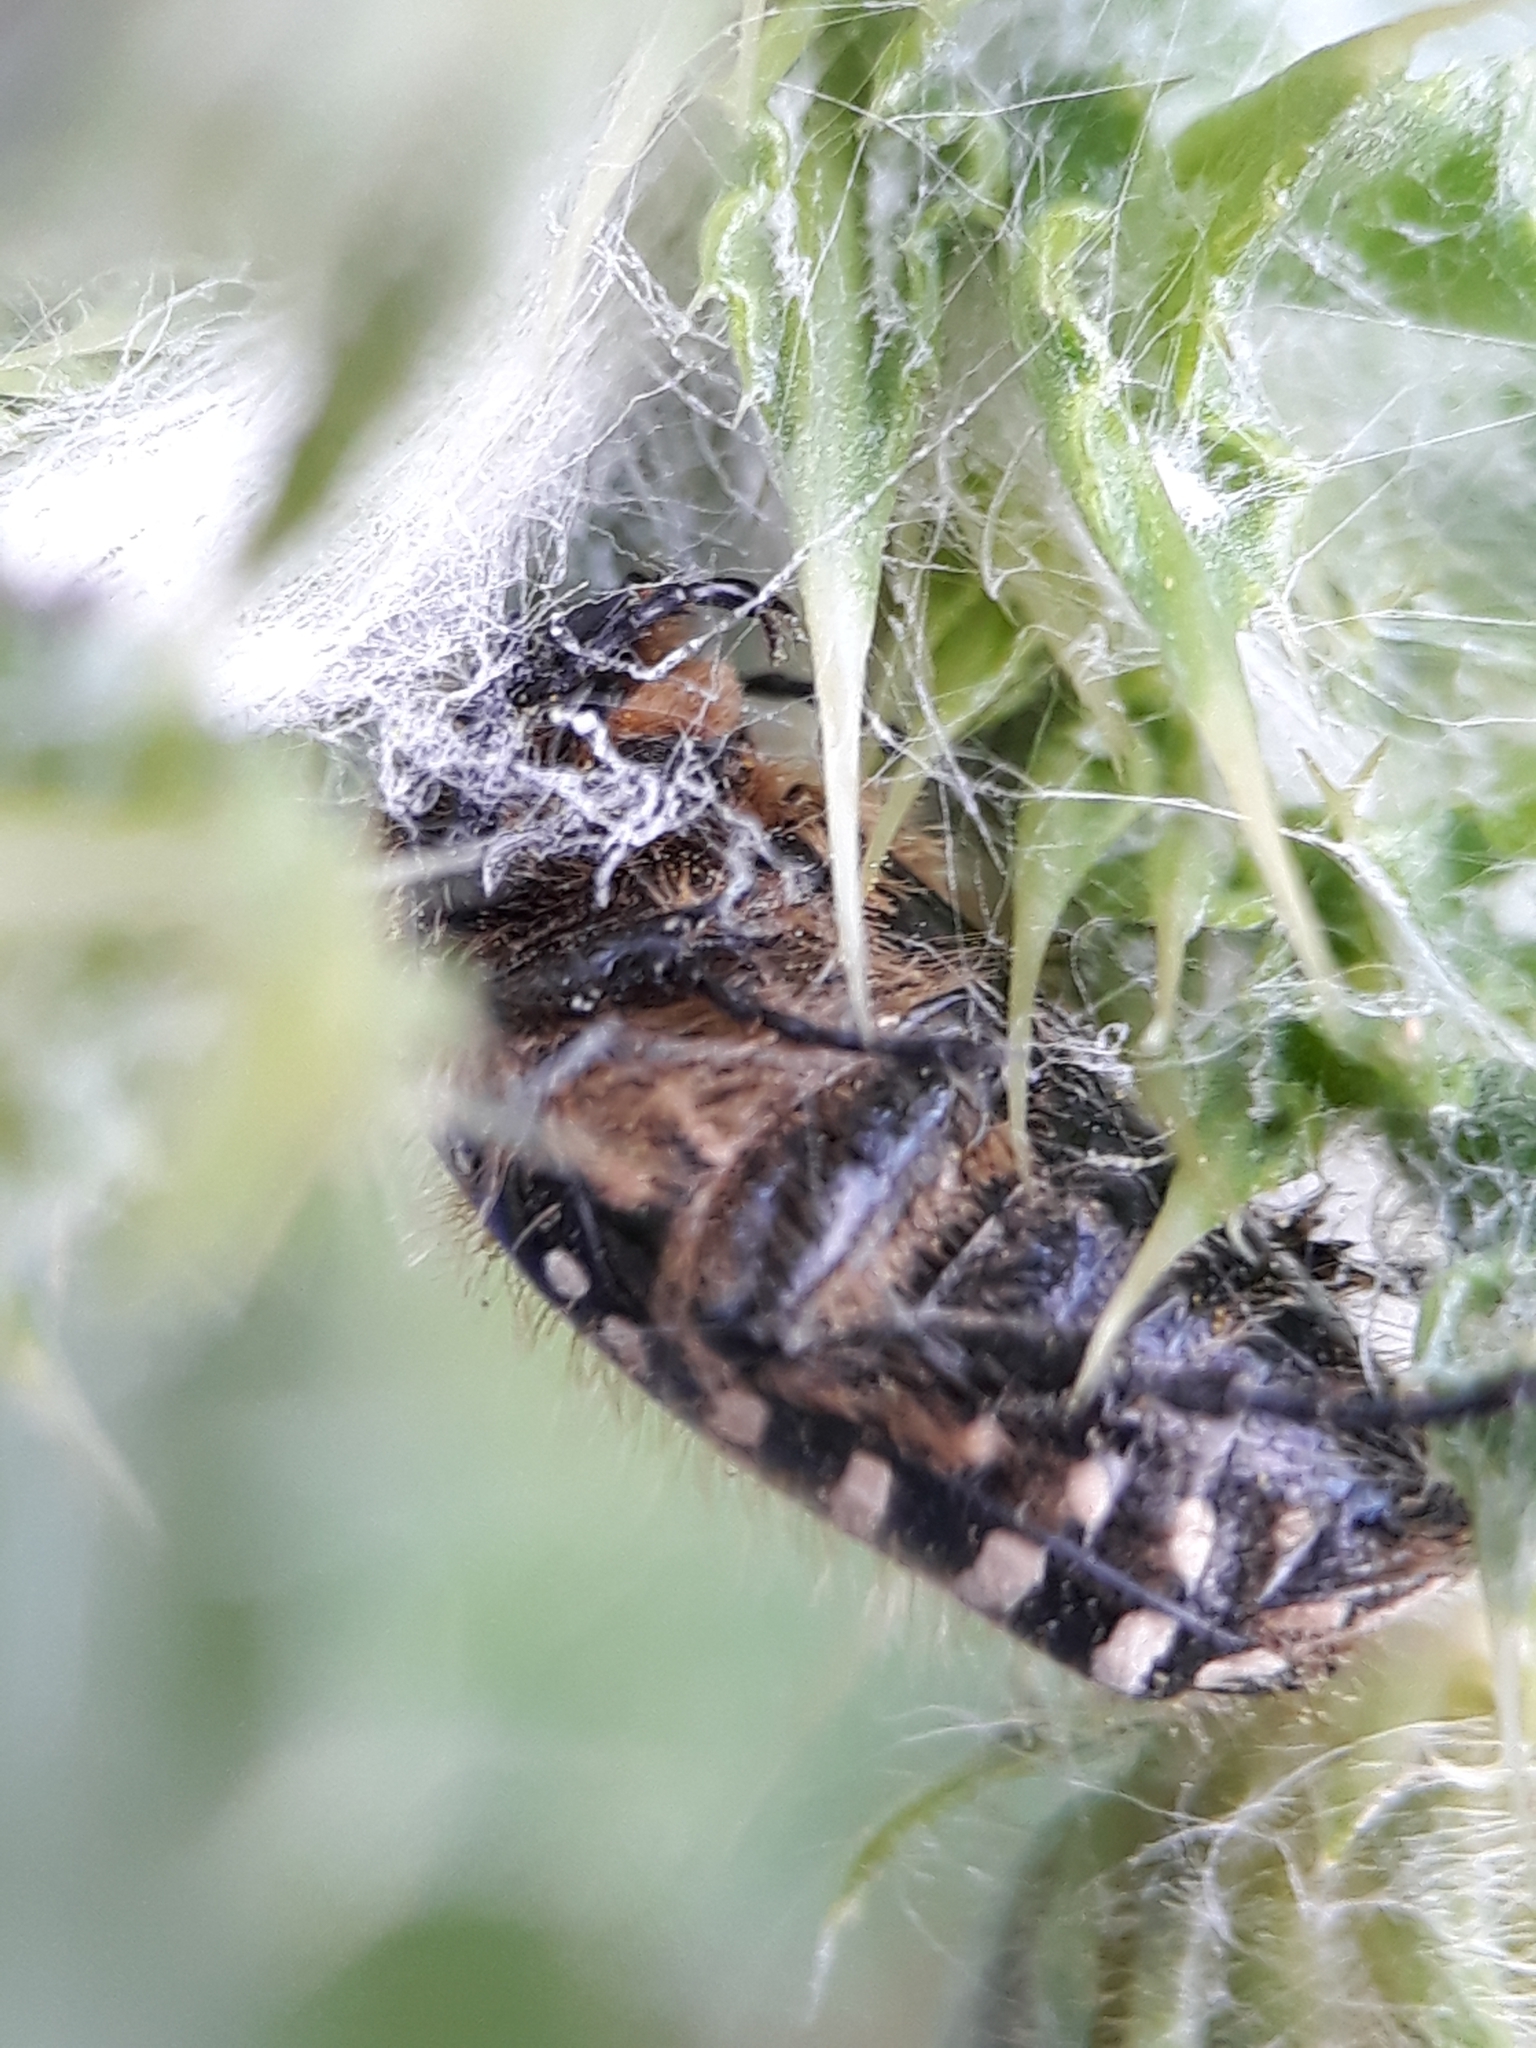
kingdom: Animalia
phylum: Arthropoda
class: Insecta
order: Coleoptera
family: Scarabaeidae
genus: Oxythyrea
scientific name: Oxythyrea funesta
